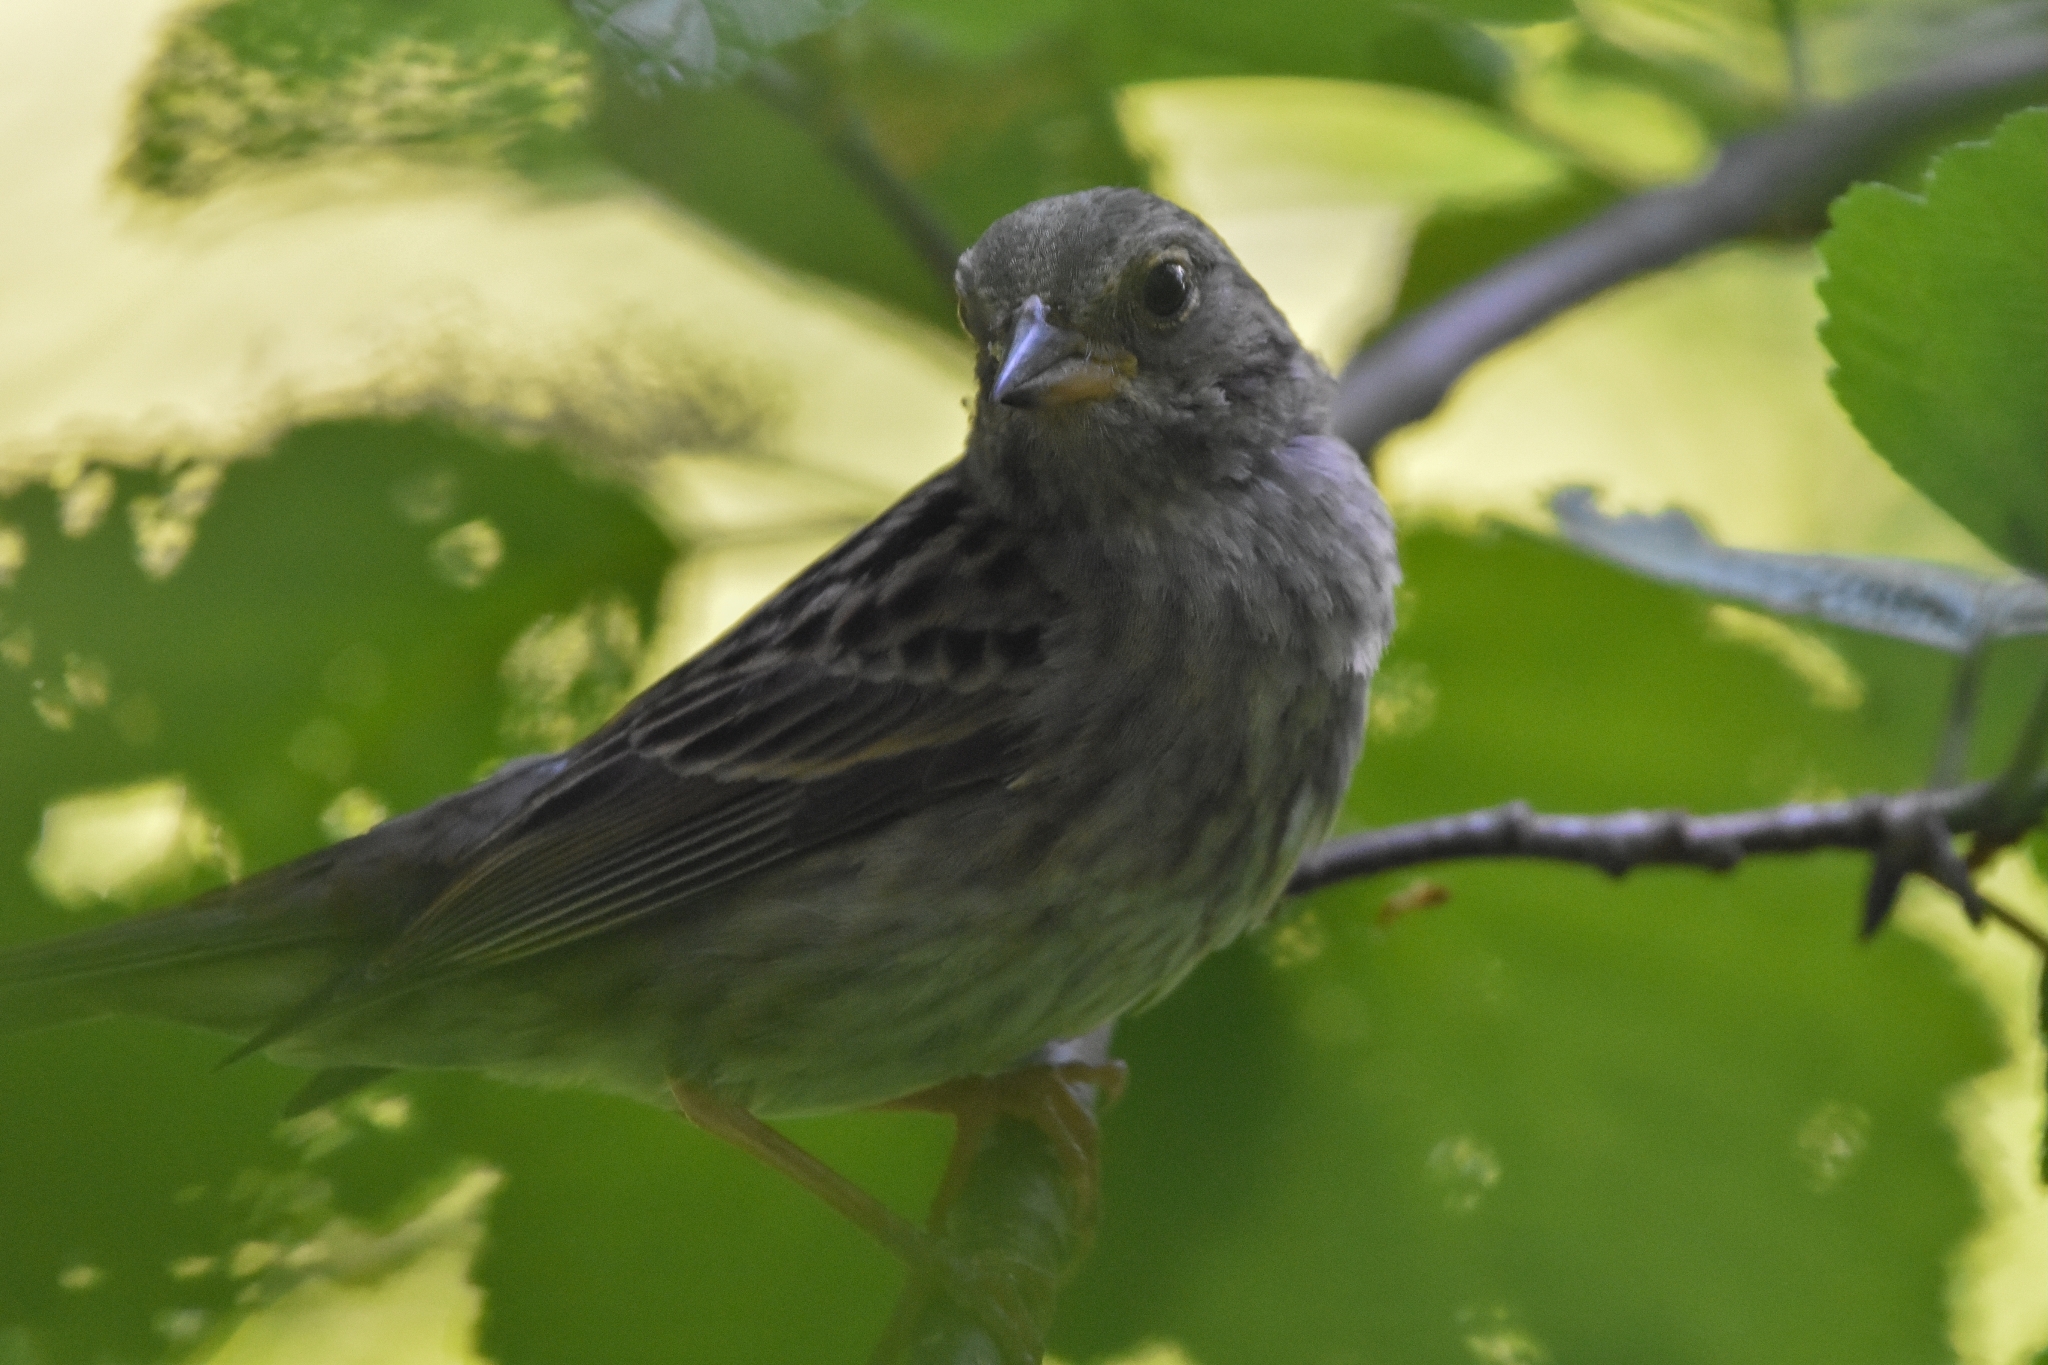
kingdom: Animalia
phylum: Chordata
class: Aves
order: Passeriformes
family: Emberizidae
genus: Emberiza
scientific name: Emberiza variabilis
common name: Gray bunting
